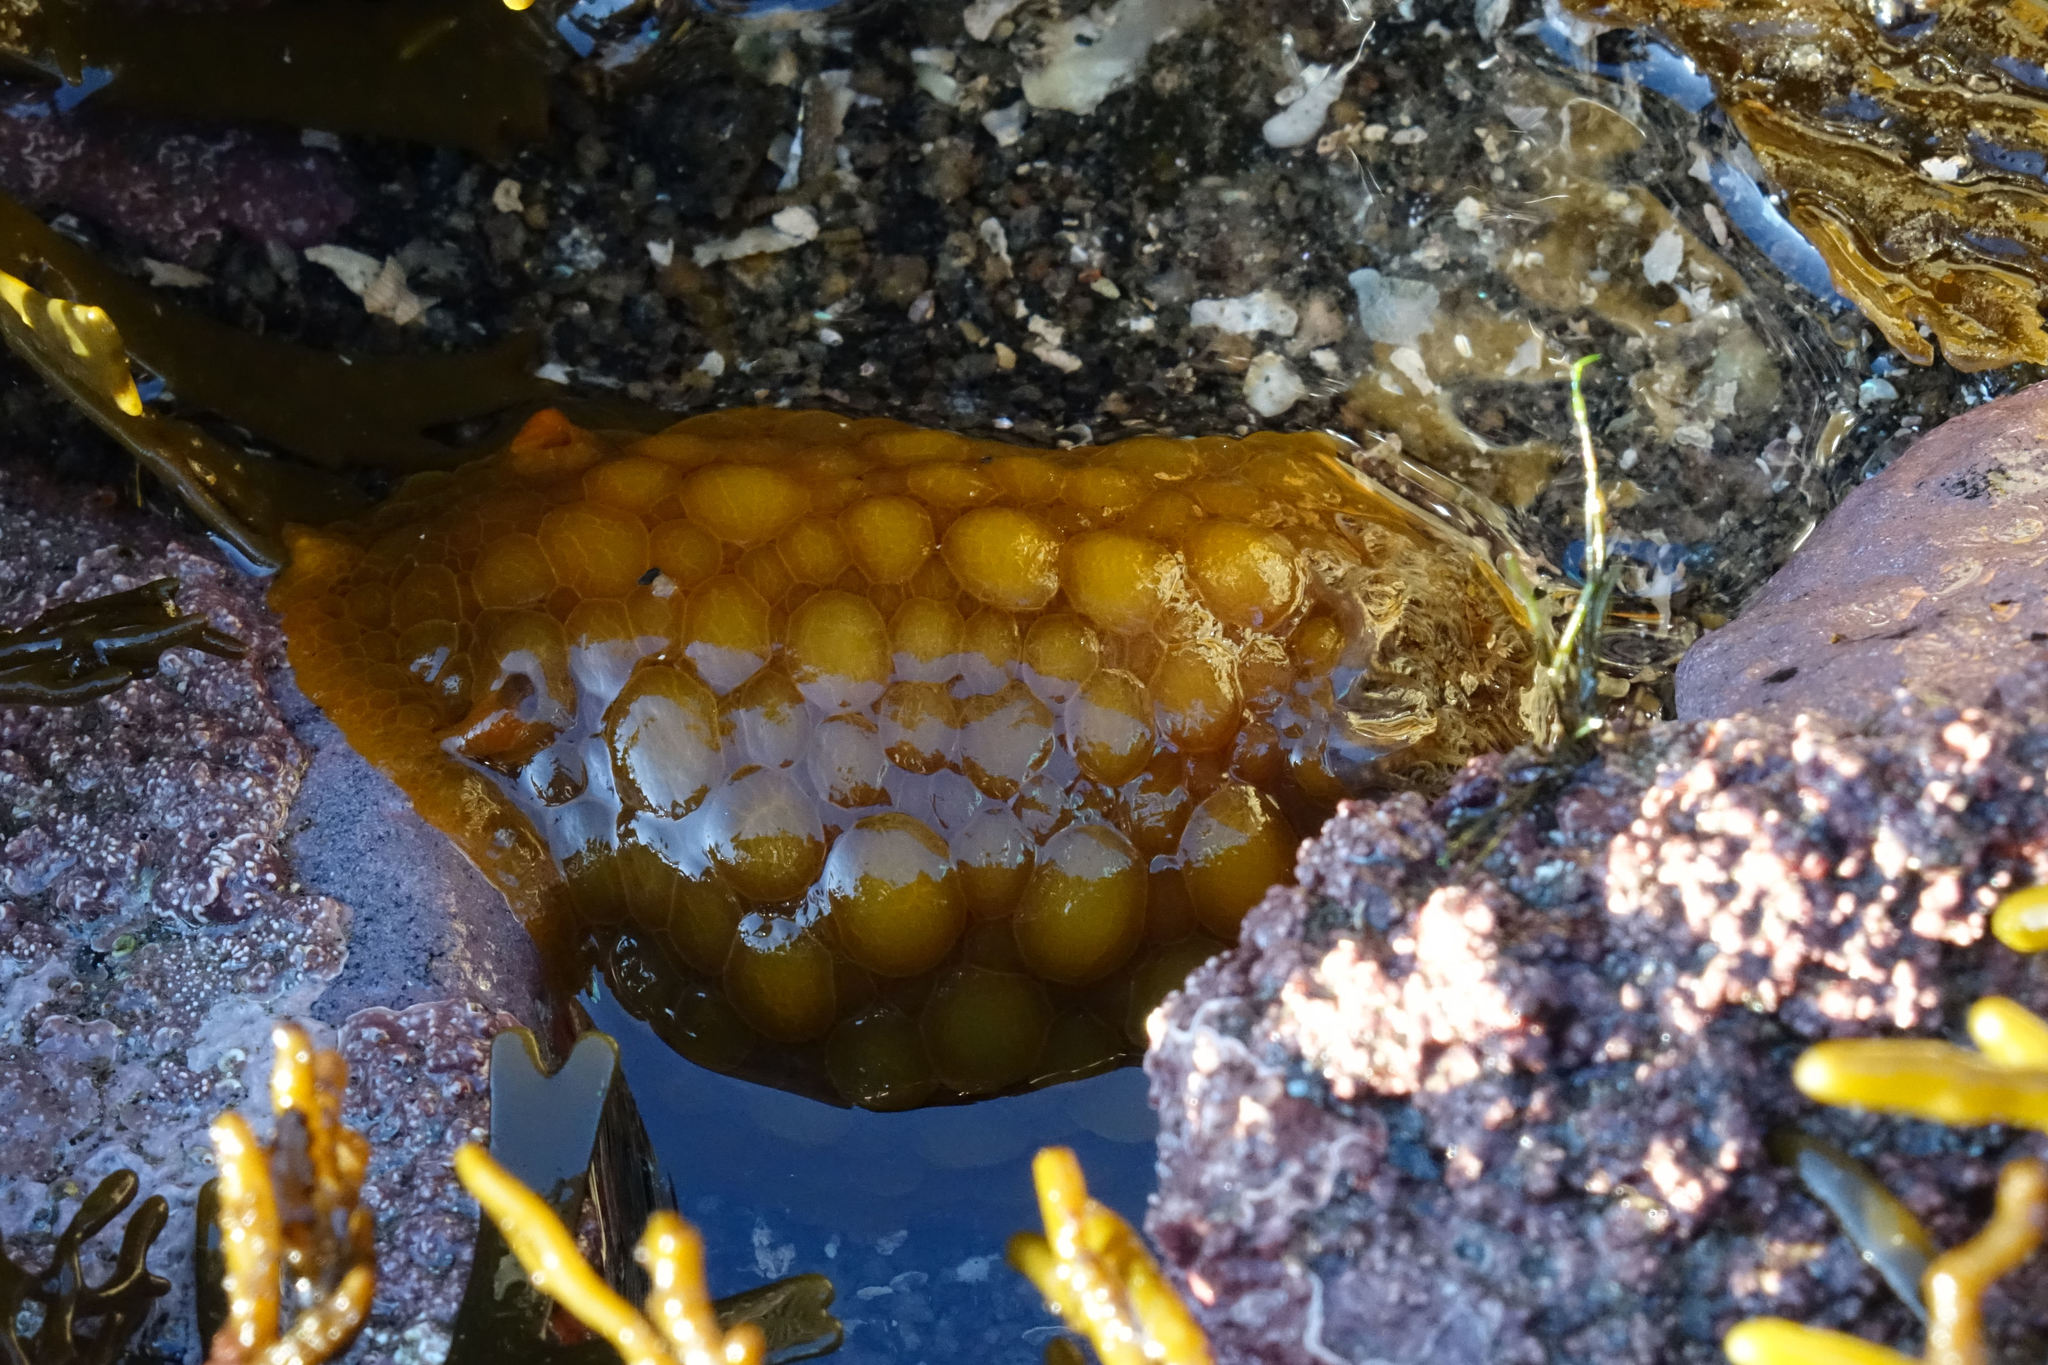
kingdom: Animalia
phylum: Mollusca
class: Gastropoda
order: Nudibranchia
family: Dorididae
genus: Doris
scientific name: Doris wellingtonensis
